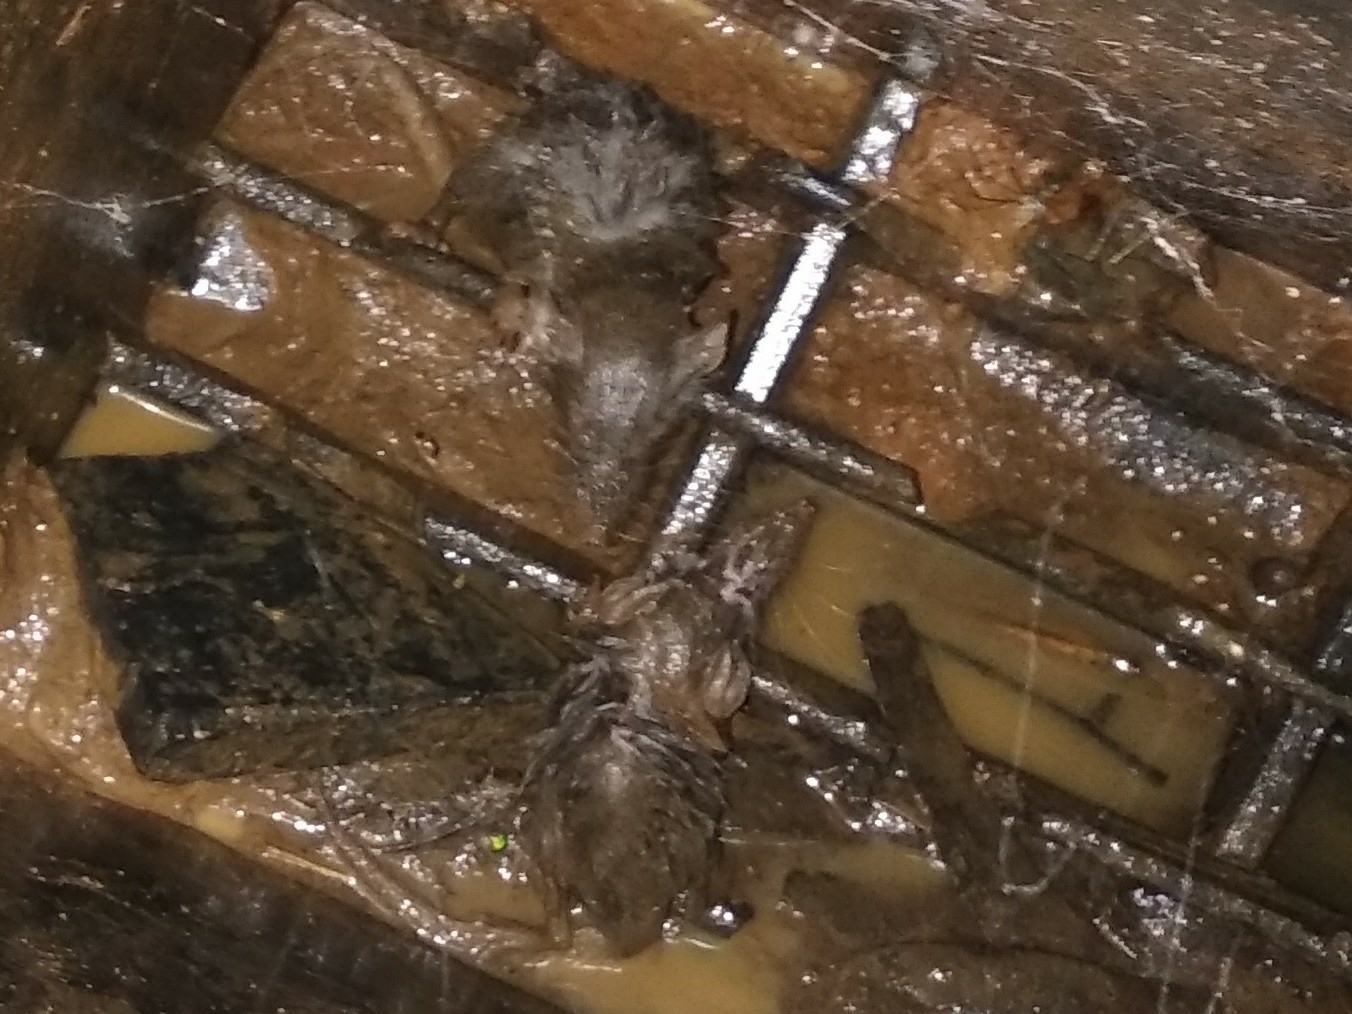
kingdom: Animalia
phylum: Chordata
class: Mammalia
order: Soricomorpha
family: Soricidae
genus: Suncus
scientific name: Suncus murinus
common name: Asian house shrew
